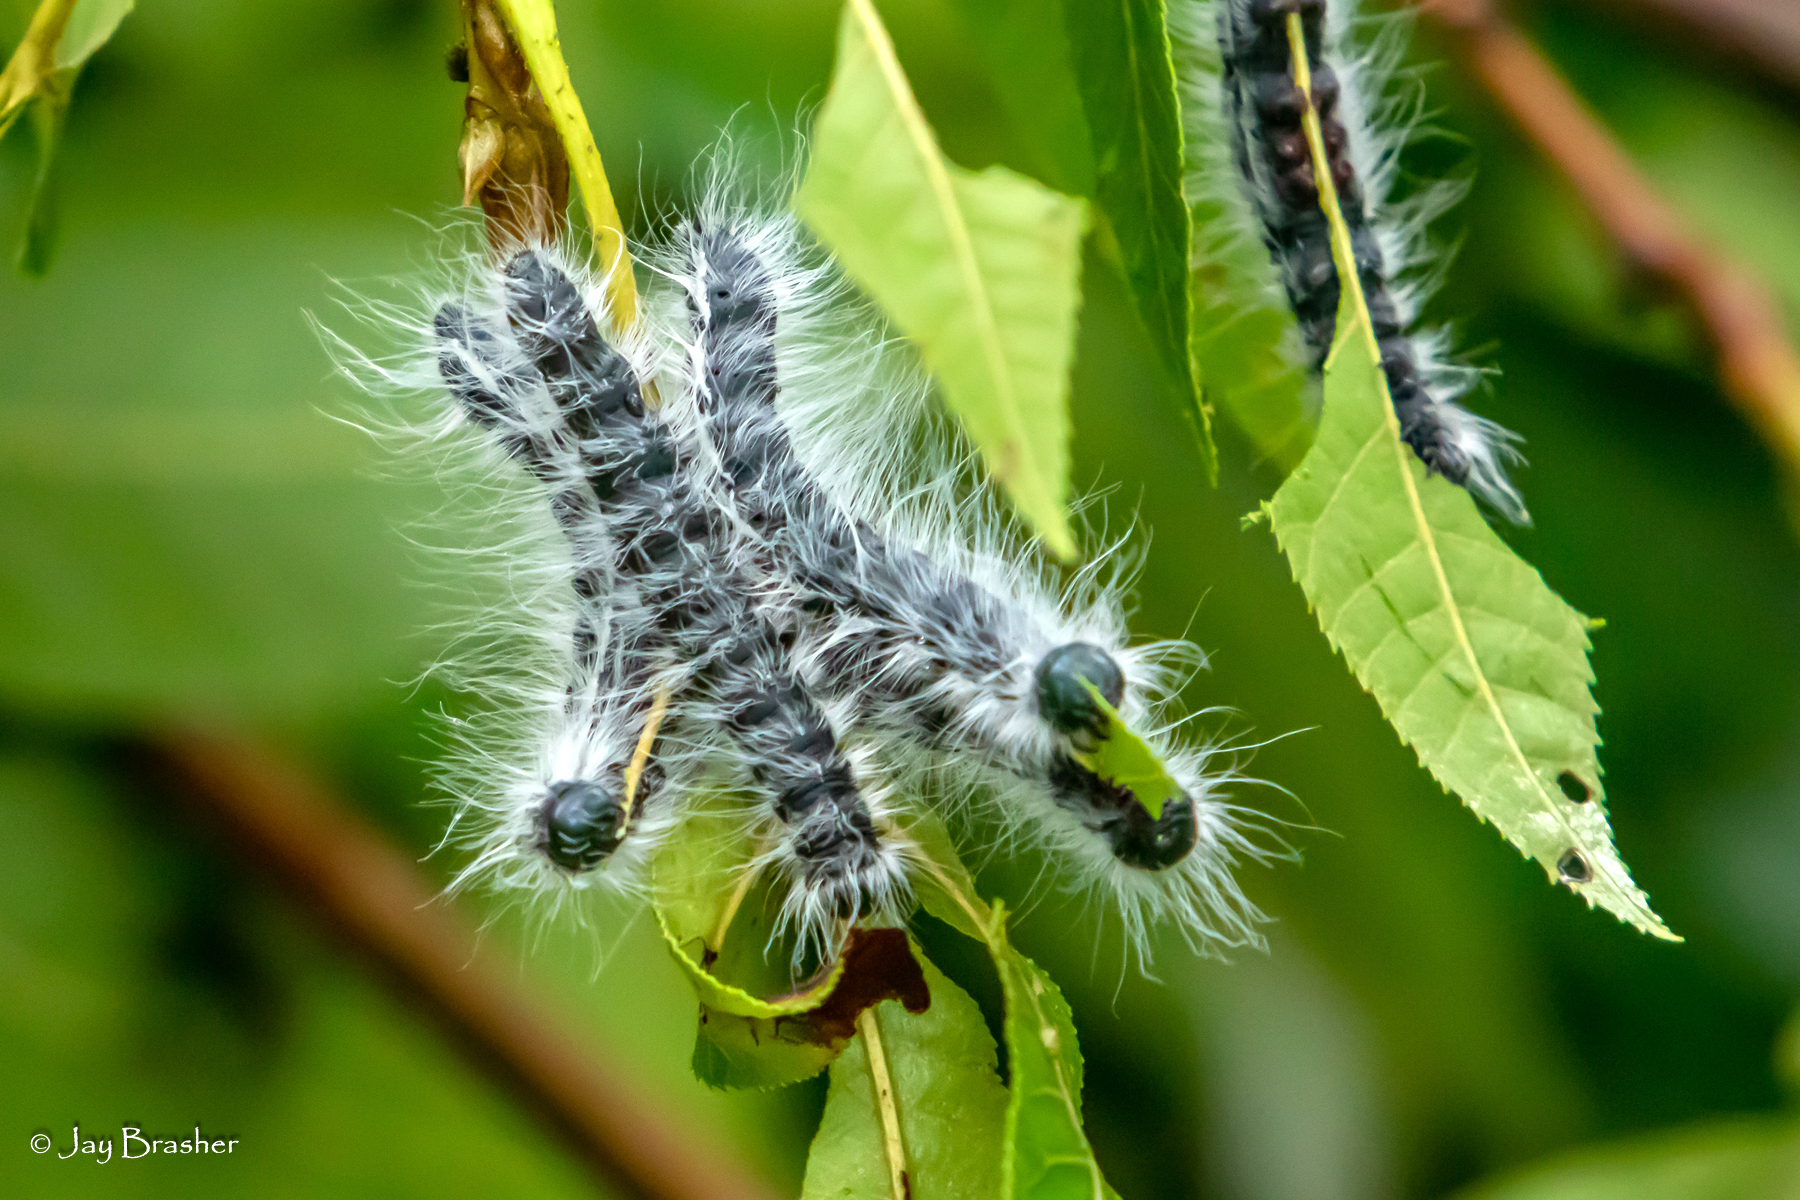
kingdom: Animalia
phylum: Arthropoda
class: Insecta
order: Lepidoptera
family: Notodontidae
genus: Datana
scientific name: Datana integerrima
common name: Walnut caterpillar
